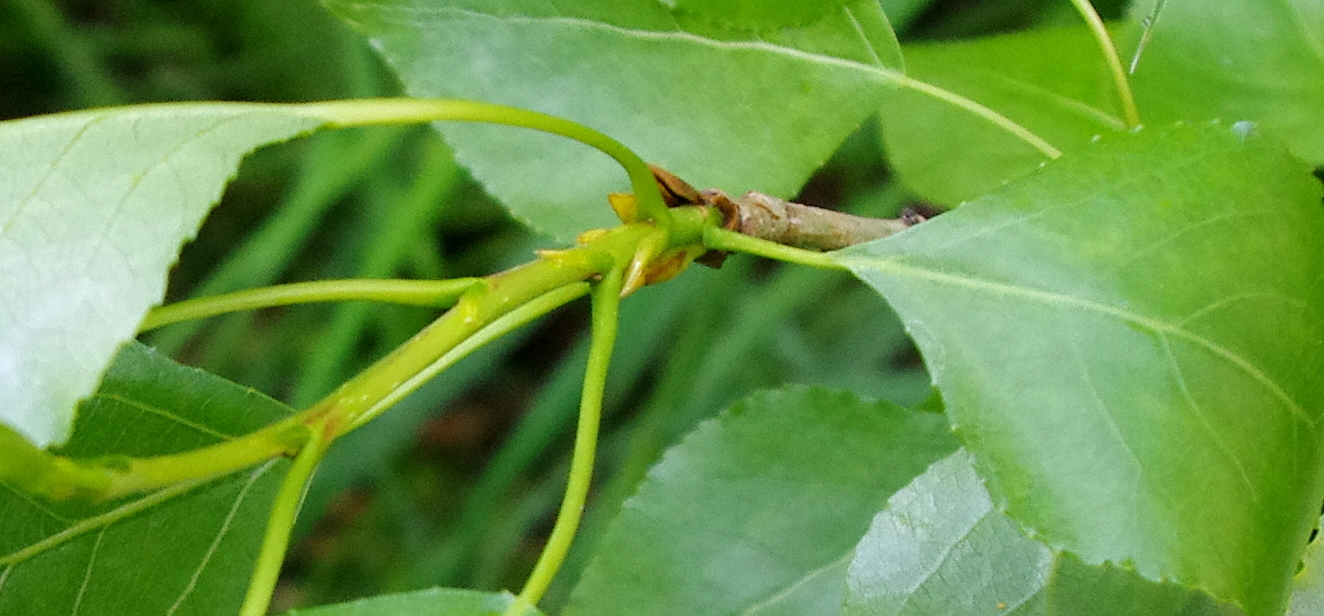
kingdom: Plantae
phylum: Tracheophyta
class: Magnoliopsida
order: Malpighiales
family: Salicaceae
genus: Populus
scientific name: Populus
